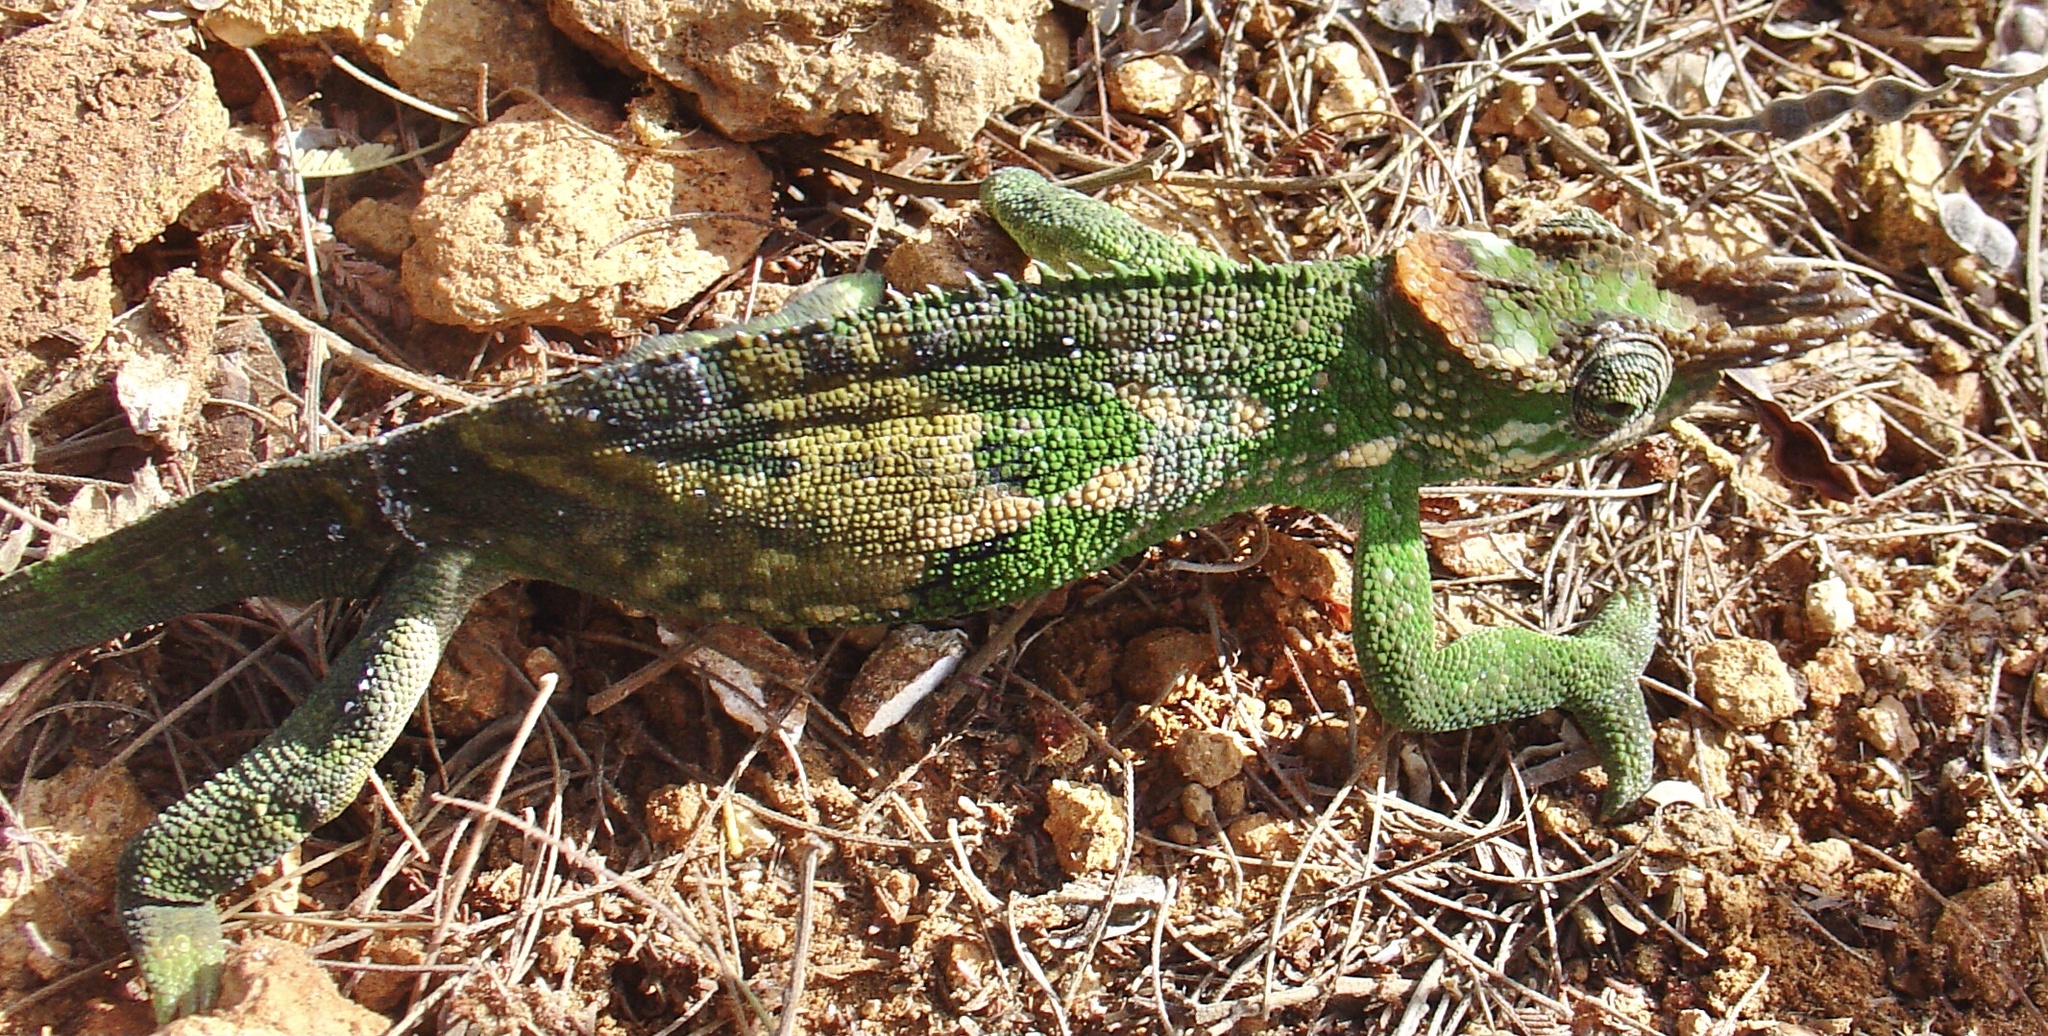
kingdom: Animalia
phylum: Chordata
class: Squamata
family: Chamaeleonidae
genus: Kinyongia
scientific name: Kinyongia multituberculata
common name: West usambara blade-horned chameleon
